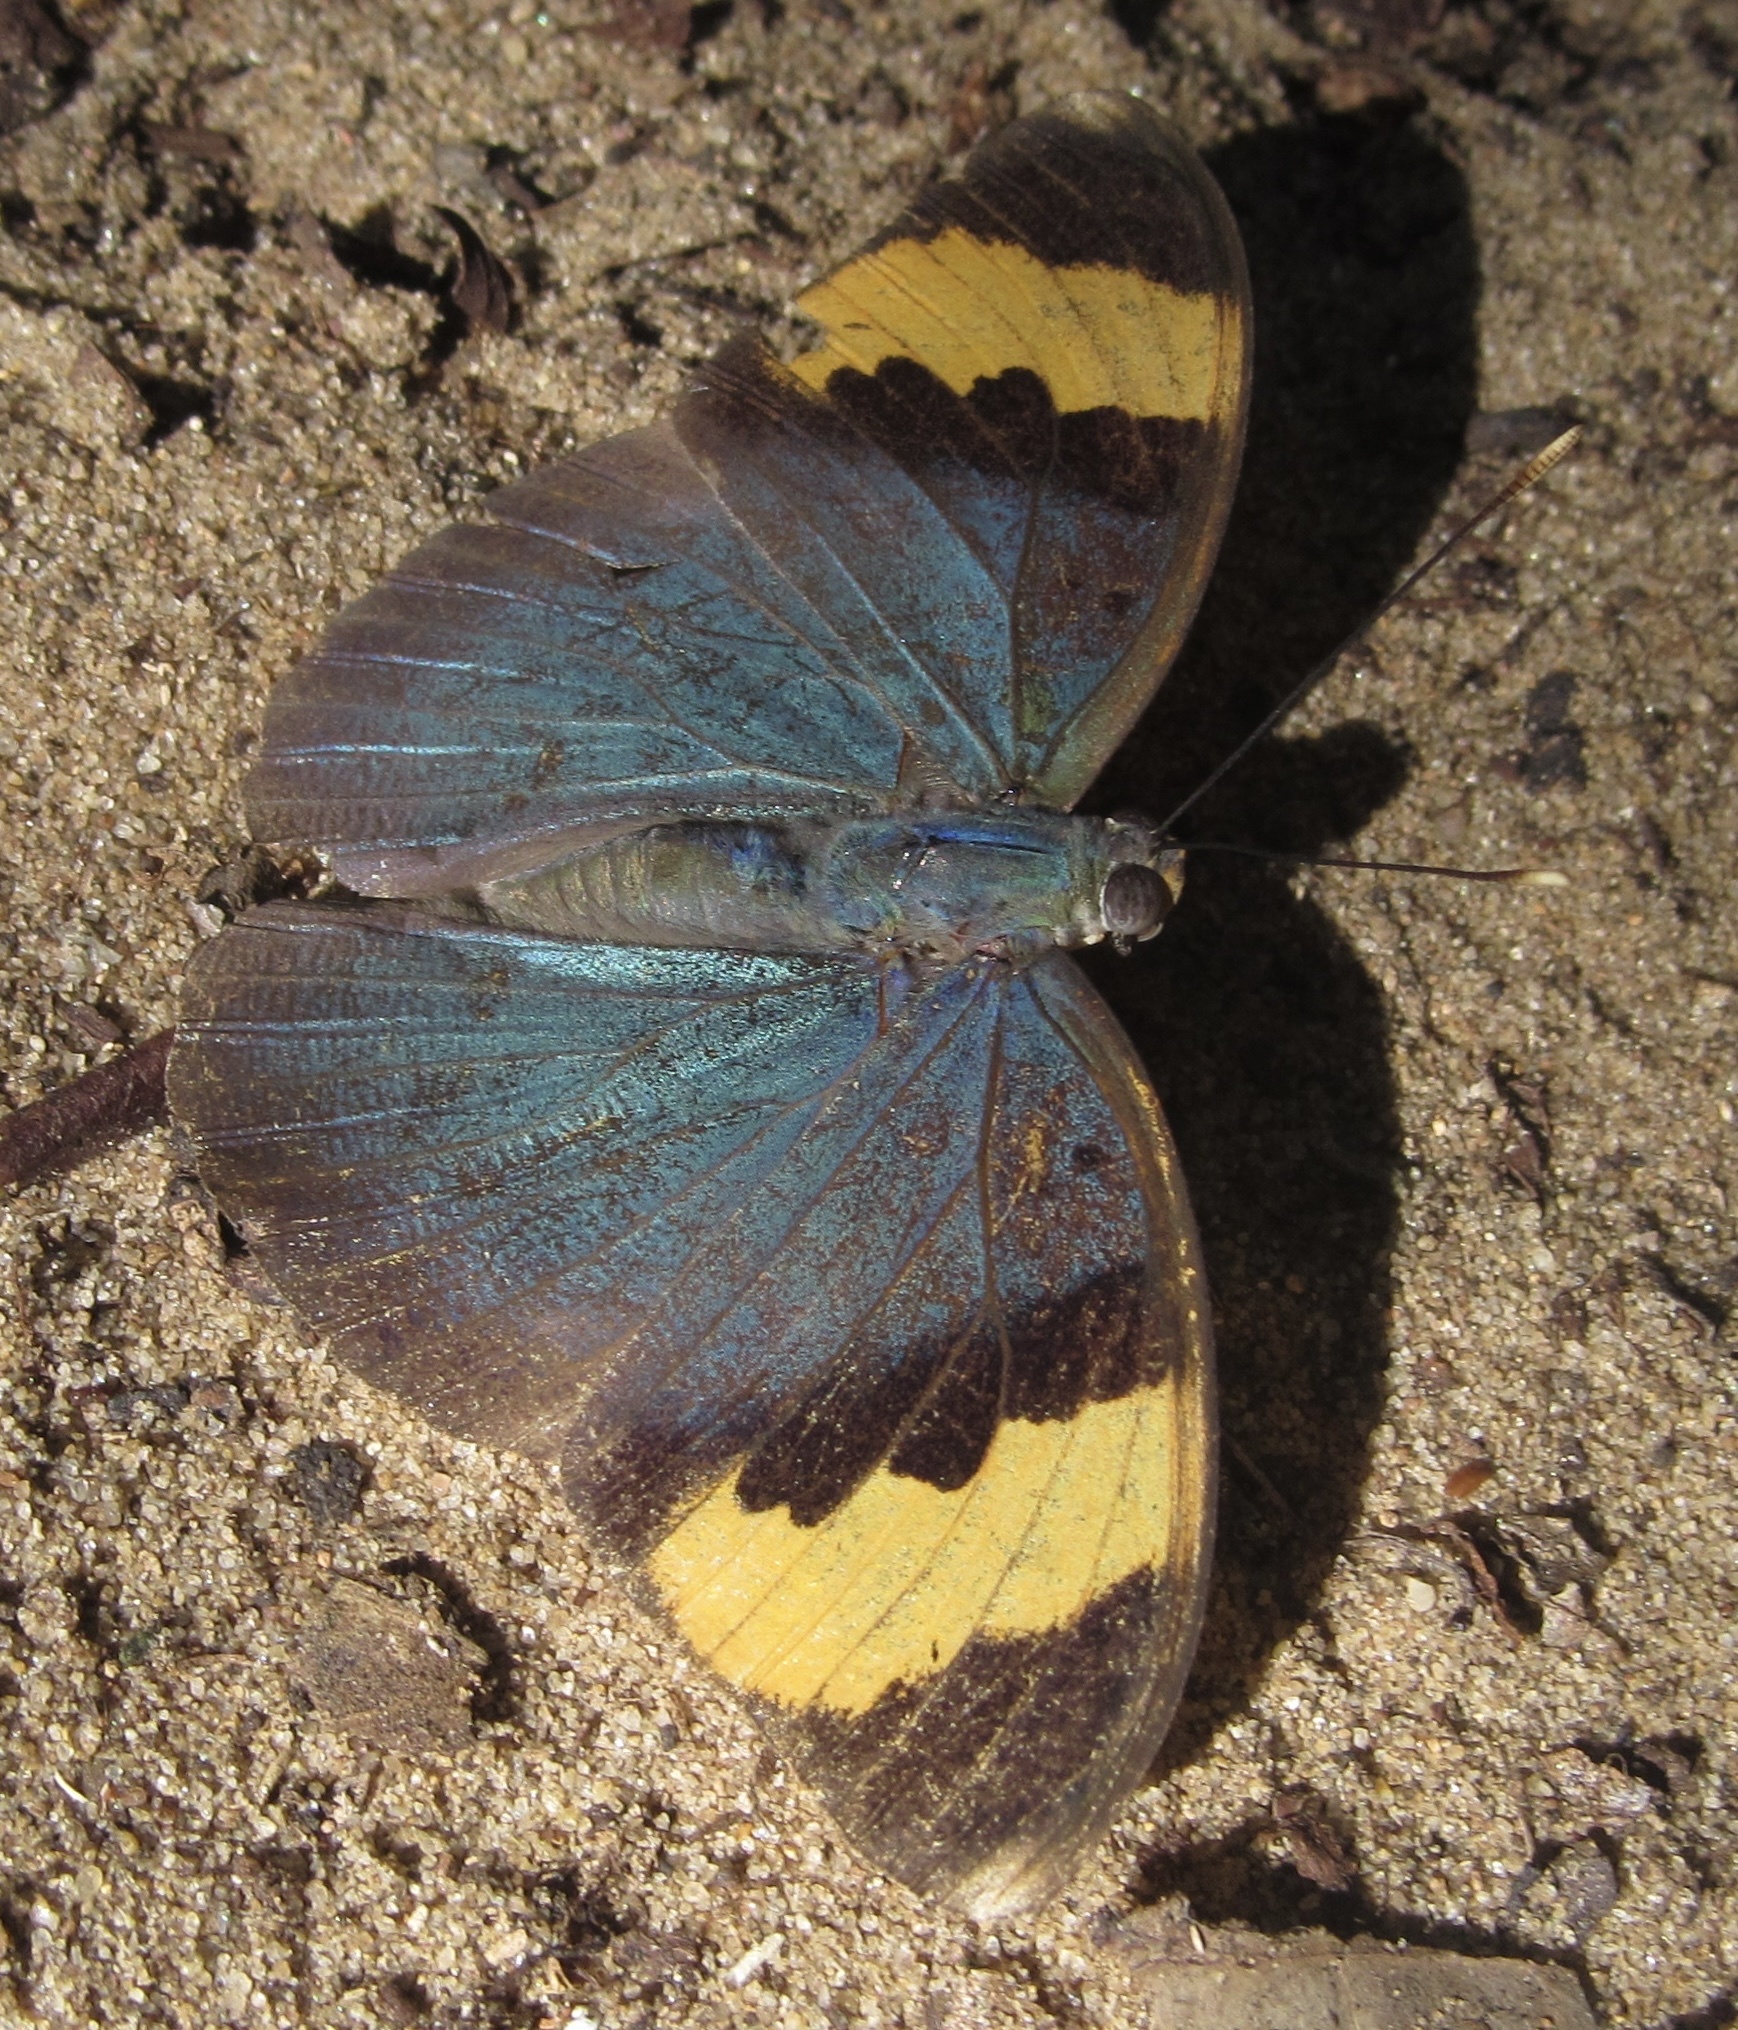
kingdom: Animalia
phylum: Arthropoda
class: Insecta
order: Lepidoptera
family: Nymphalidae
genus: Euphaedra
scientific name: Euphaedra neophron
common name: Gold-banded forester
